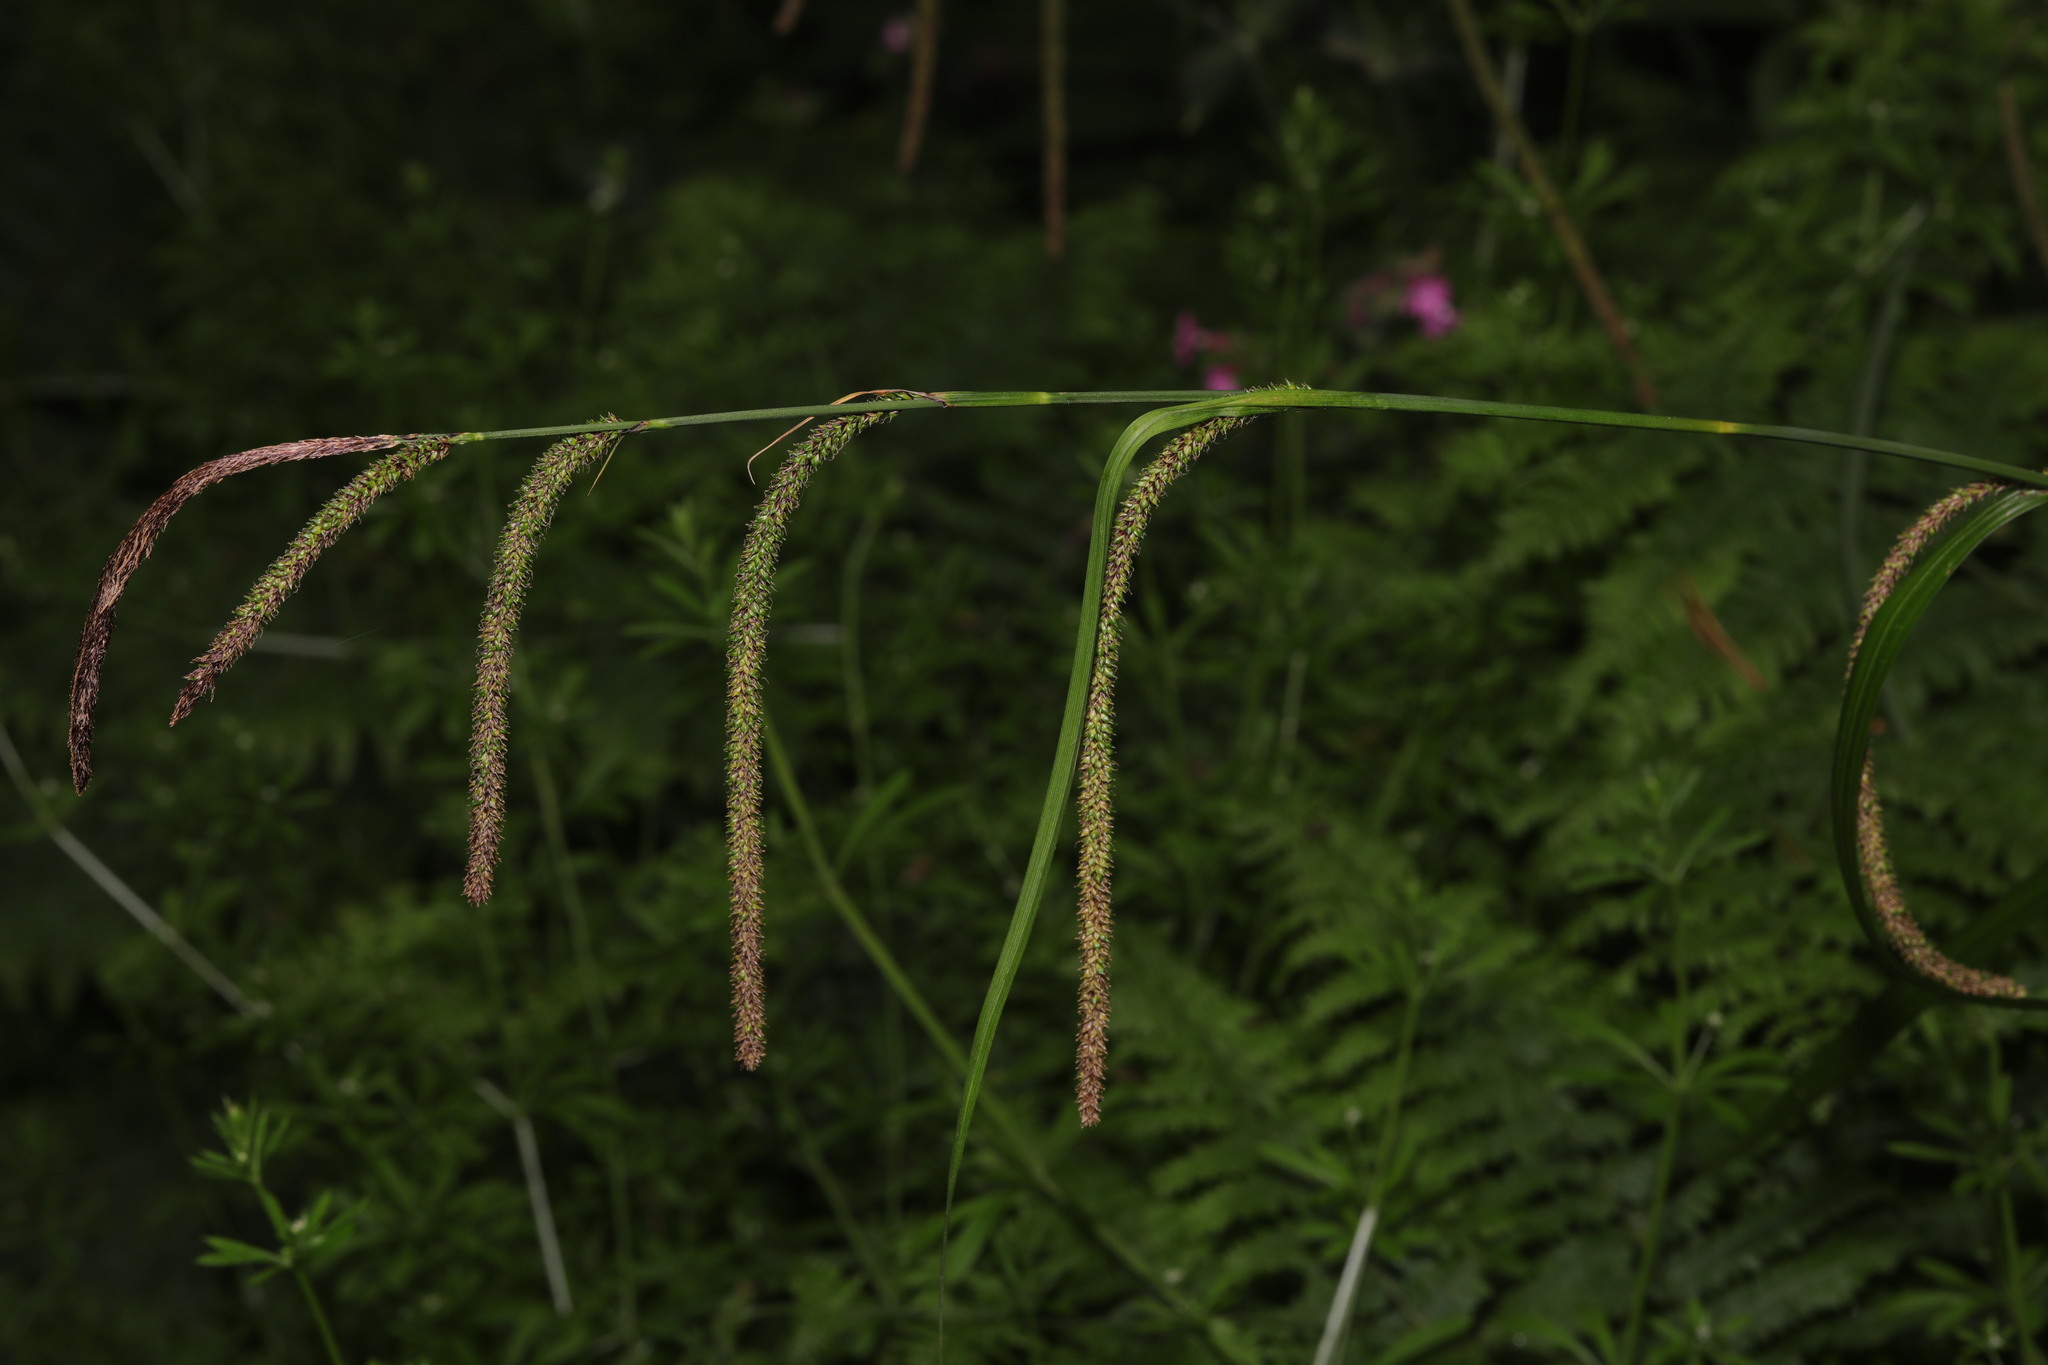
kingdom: Plantae
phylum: Tracheophyta
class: Liliopsida
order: Poales
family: Cyperaceae
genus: Carex
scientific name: Carex pendula
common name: Pendulous sedge
